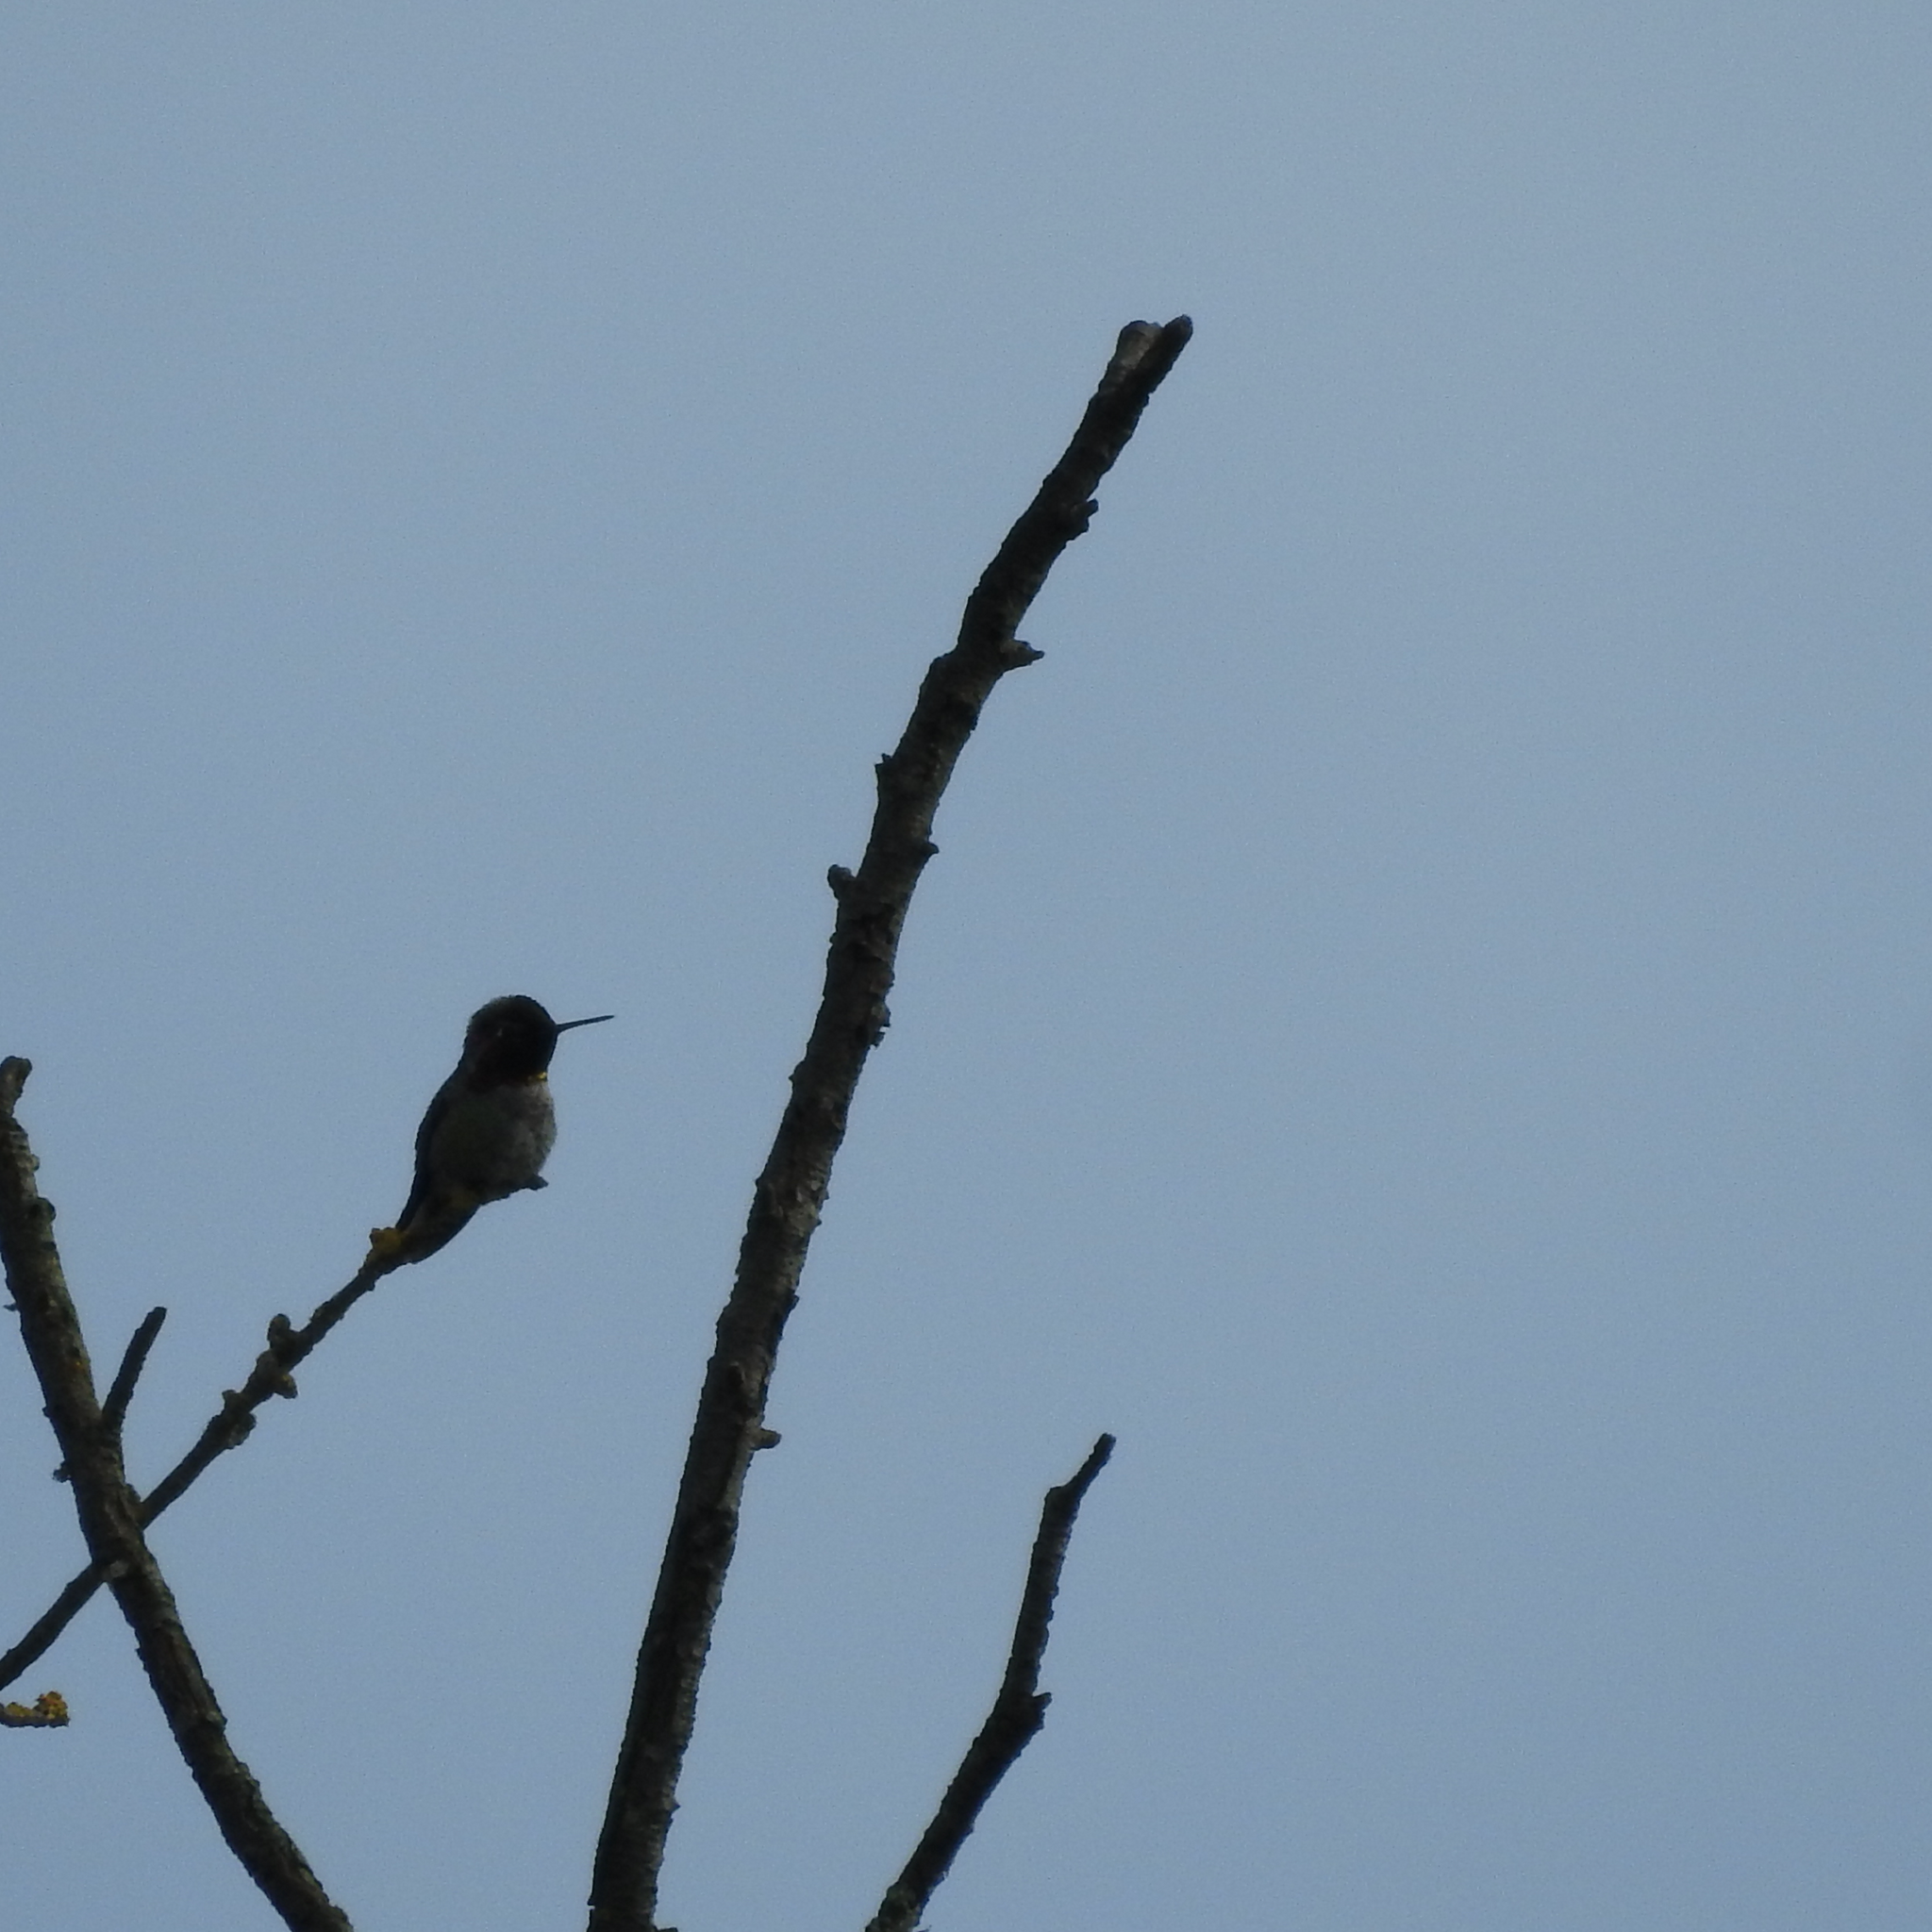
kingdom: Animalia
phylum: Chordata
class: Aves
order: Apodiformes
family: Trochilidae
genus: Calypte
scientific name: Calypte anna
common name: Anna's hummingbird
